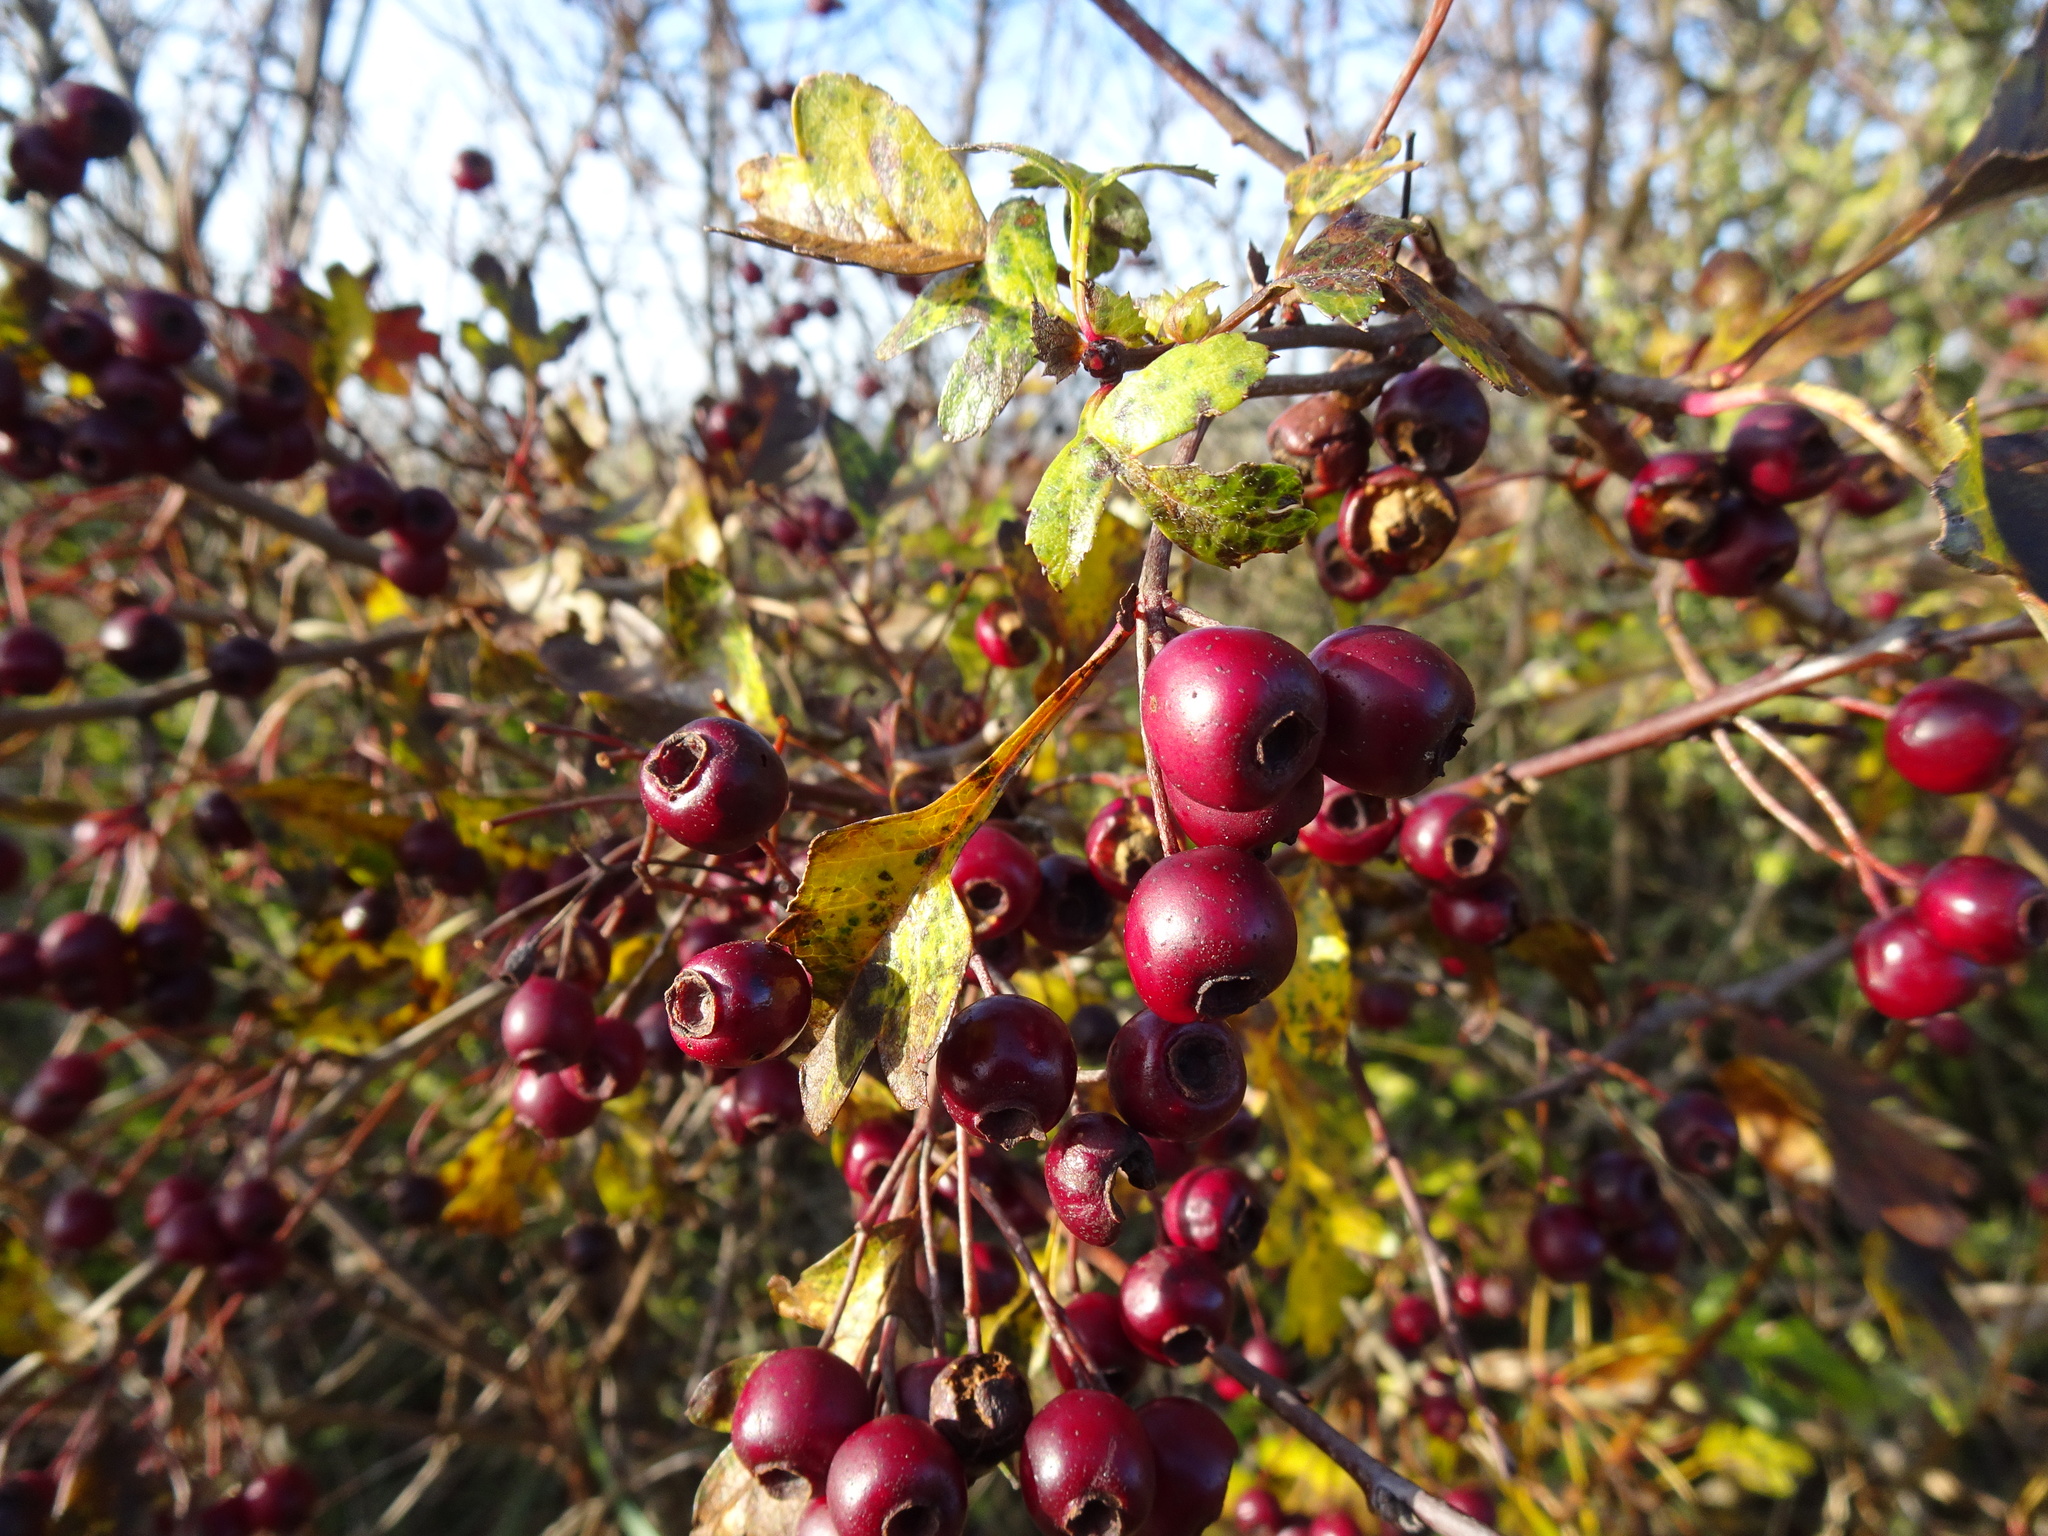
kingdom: Plantae
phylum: Tracheophyta
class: Magnoliopsida
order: Rosales
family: Rosaceae
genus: Crataegus
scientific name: Crataegus monogyna
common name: Hawthorn
